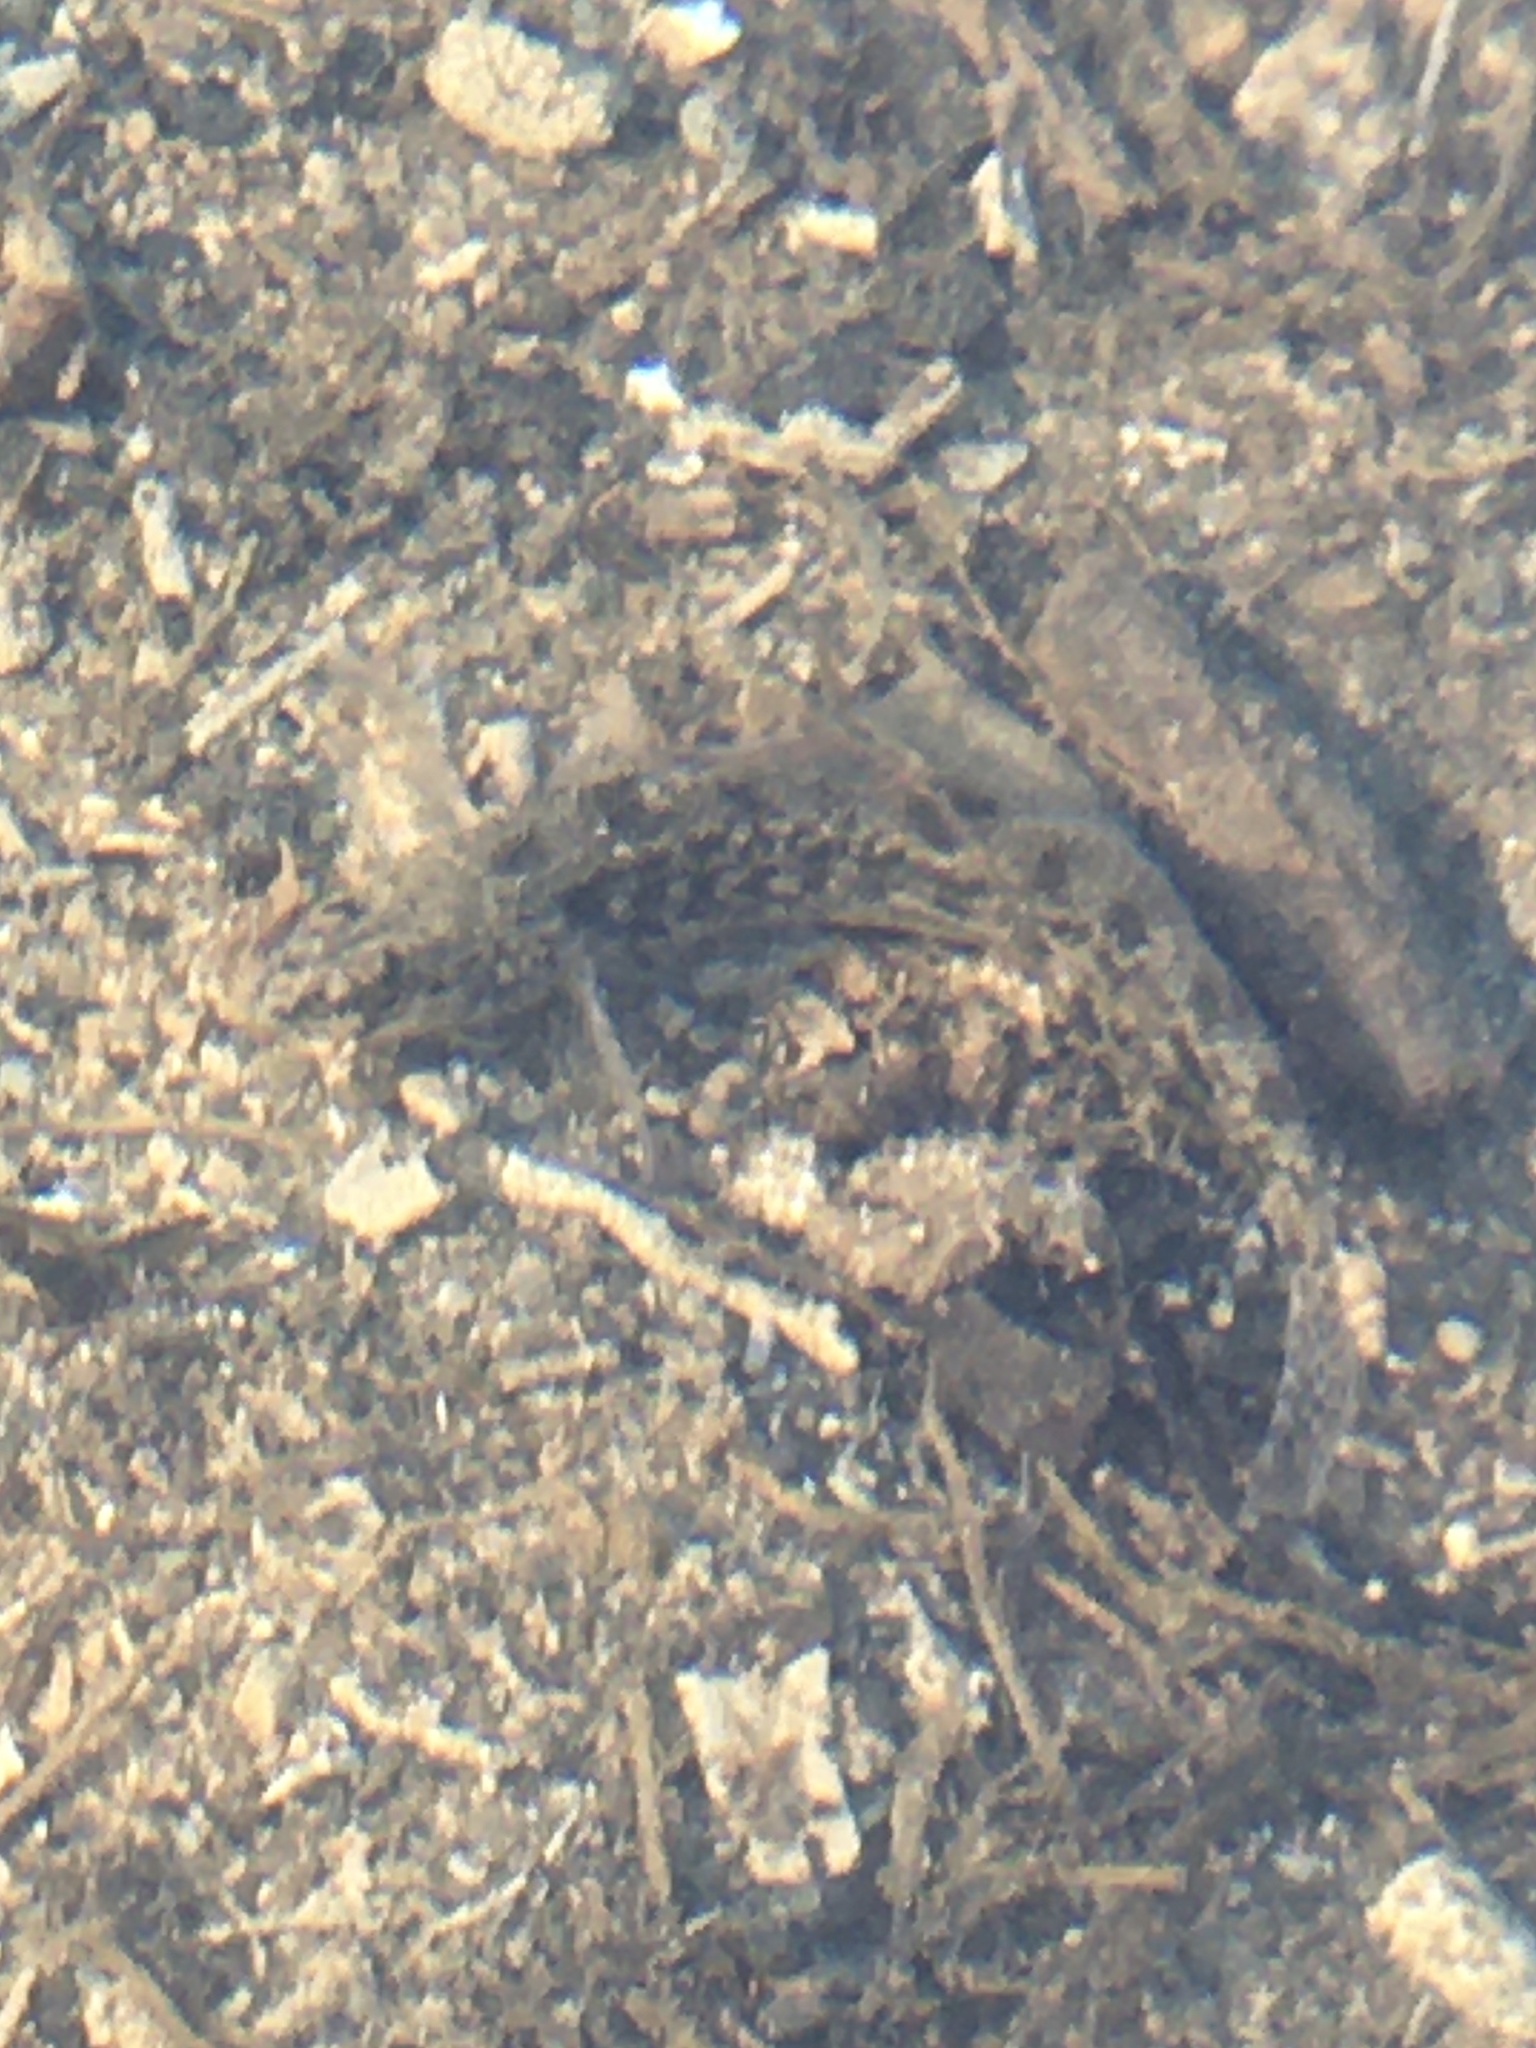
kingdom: Animalia
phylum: Chordata
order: Perciformes
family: Percidae
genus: Etheostoma
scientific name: Etheostoma exile
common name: Iowa darter
